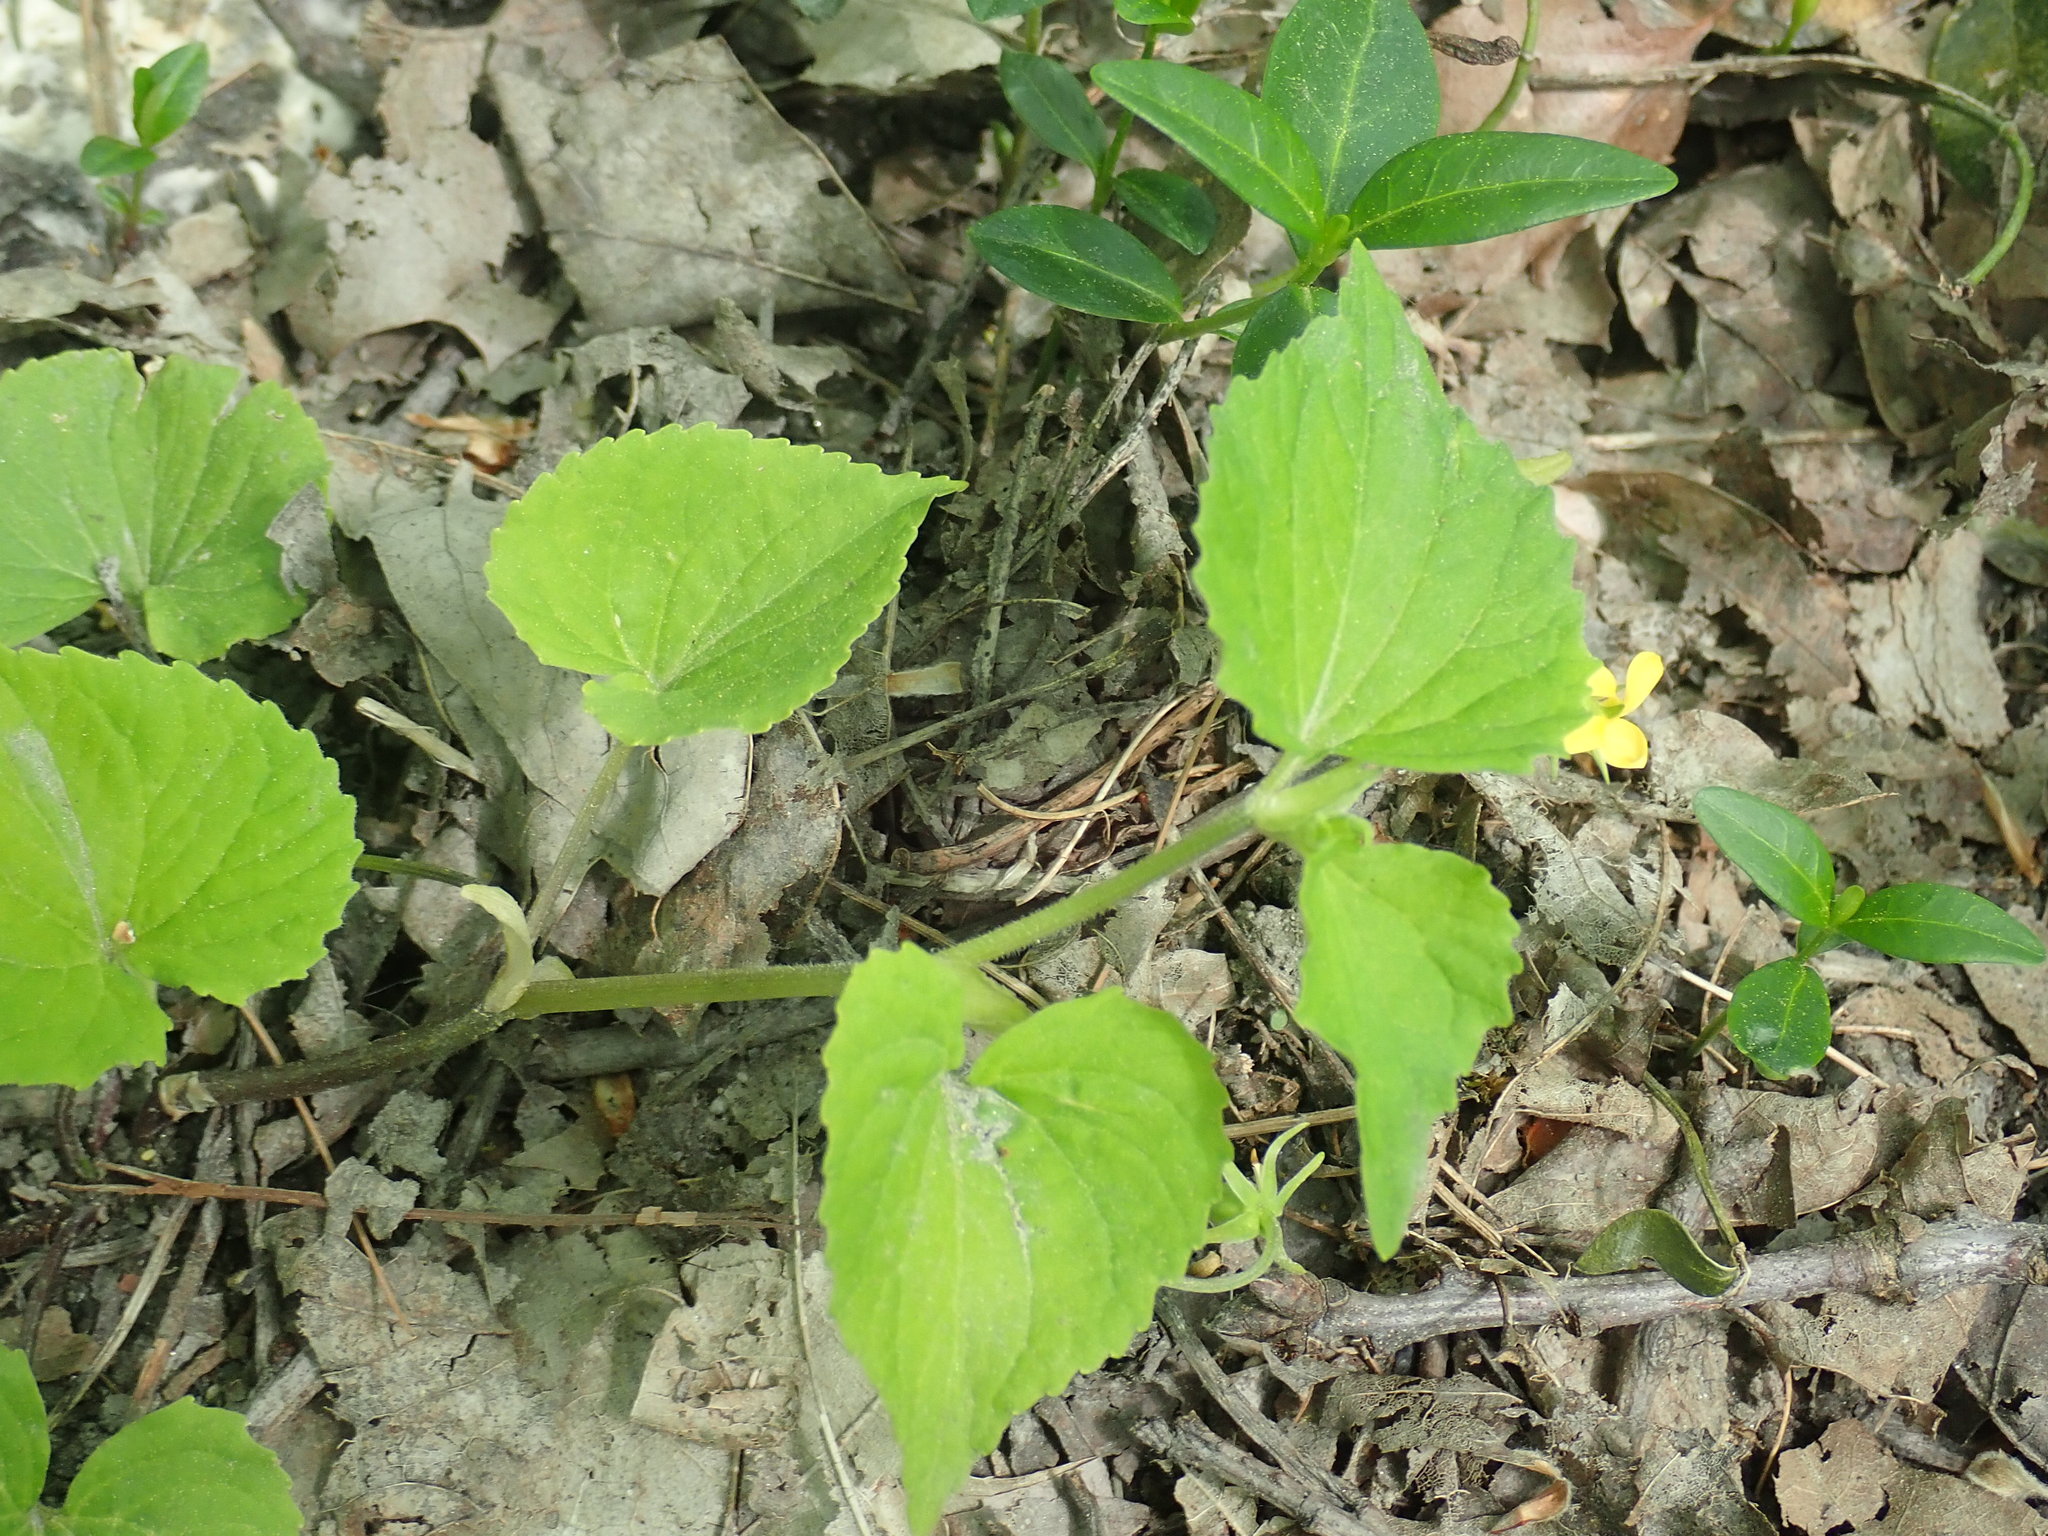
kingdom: Plantae
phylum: Tracheophyta
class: Magnoliopsida
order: Malpighiales
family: Violaceae
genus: Viola
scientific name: Viola eriocarpa
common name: Smooth yellow violet
